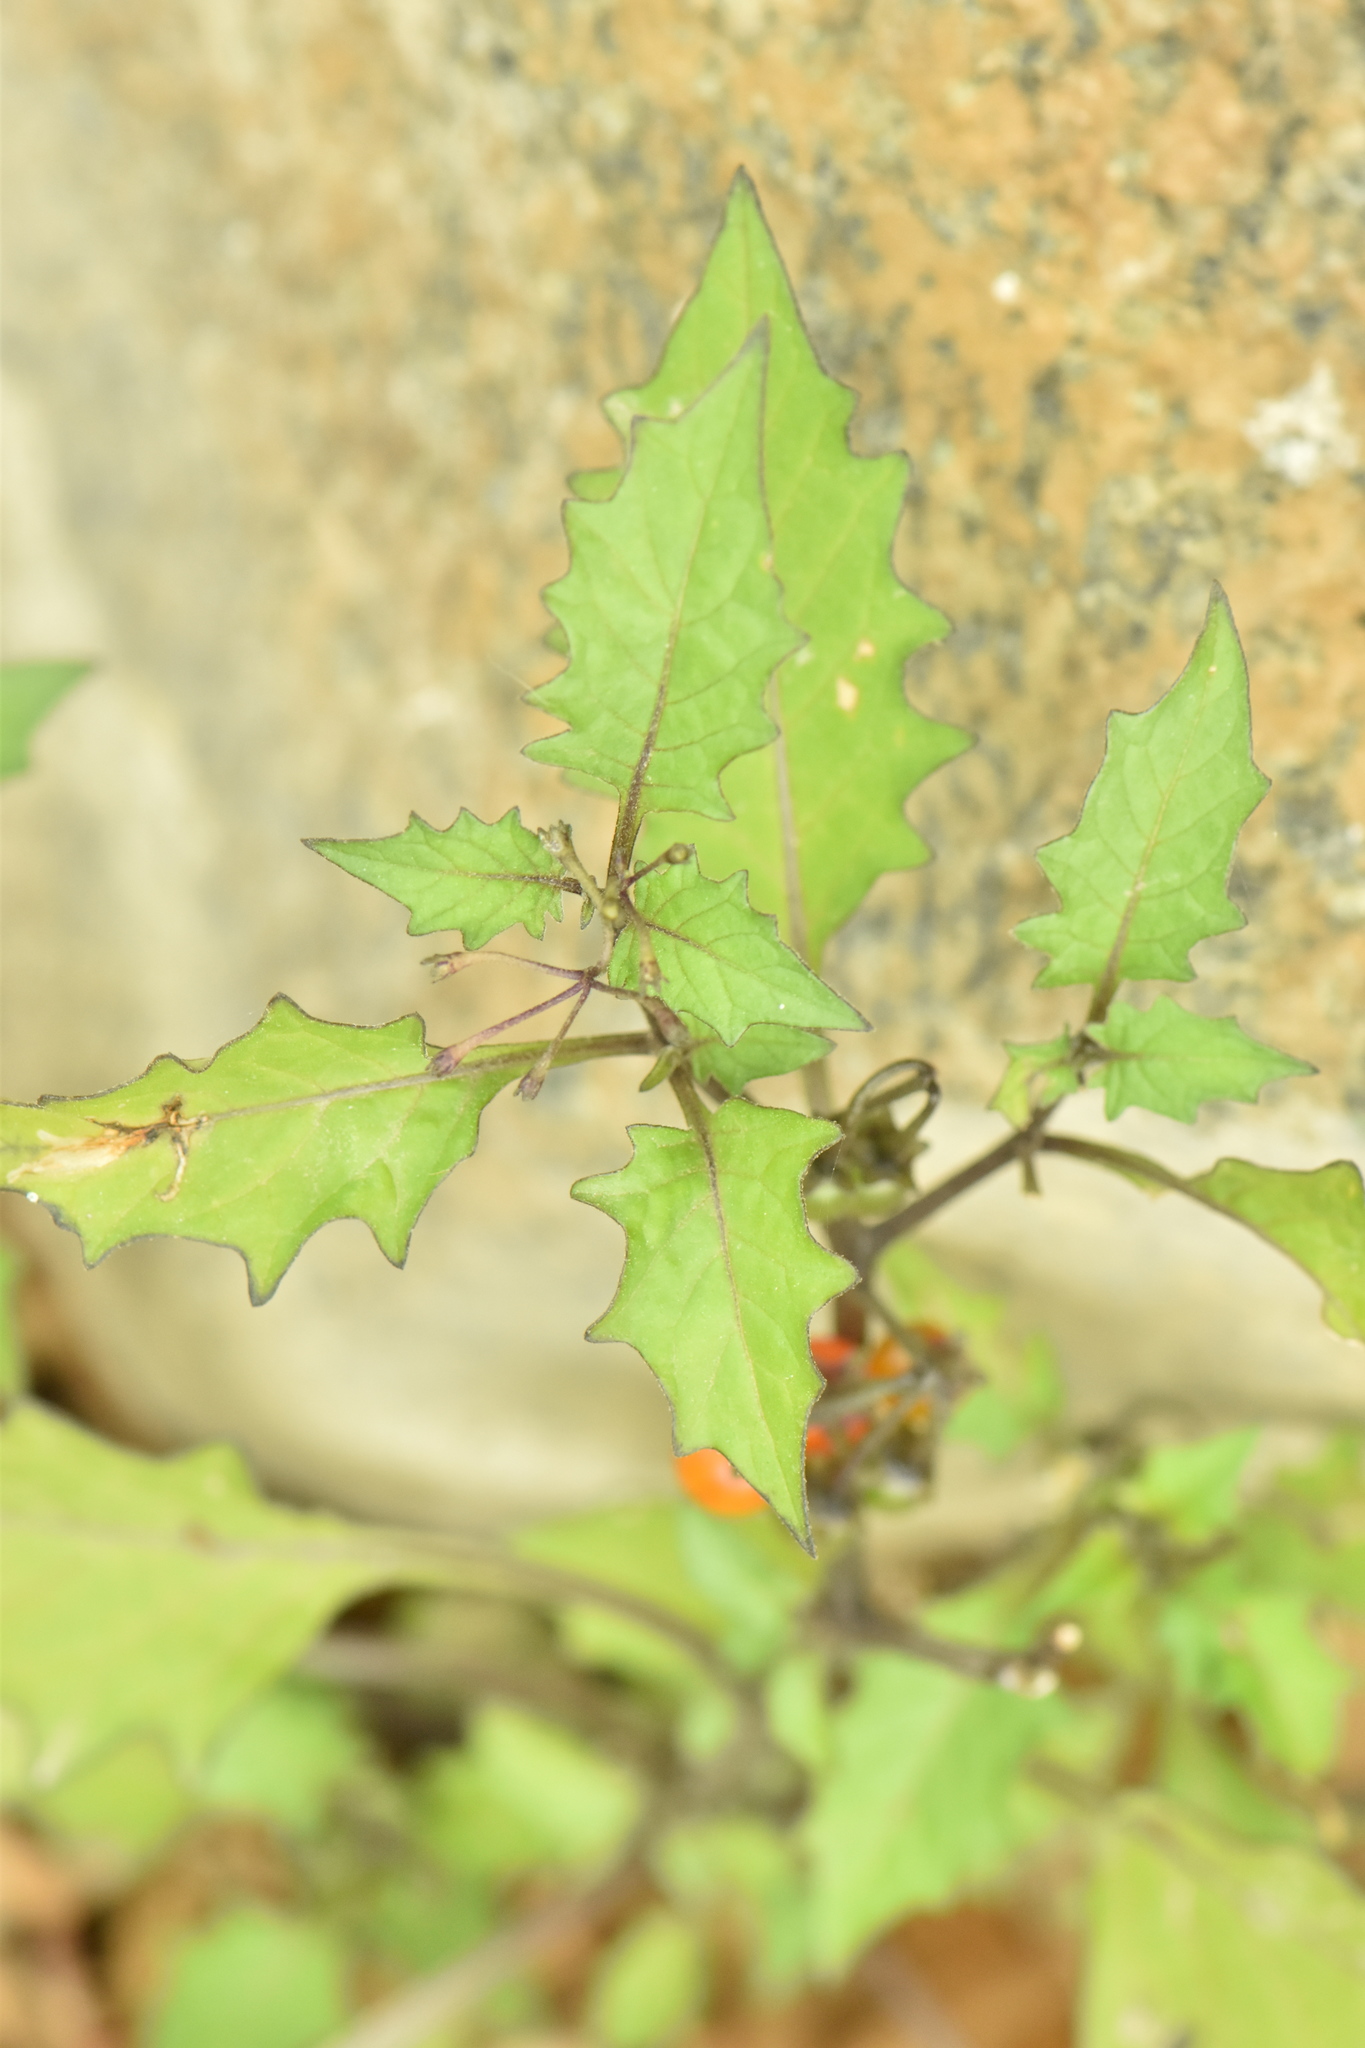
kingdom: Plantae
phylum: Tracheophyta
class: Magnoliopsida
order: Solanales
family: Solanaceae
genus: Solanum
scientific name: Solanum villosum
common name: Red nightshade
